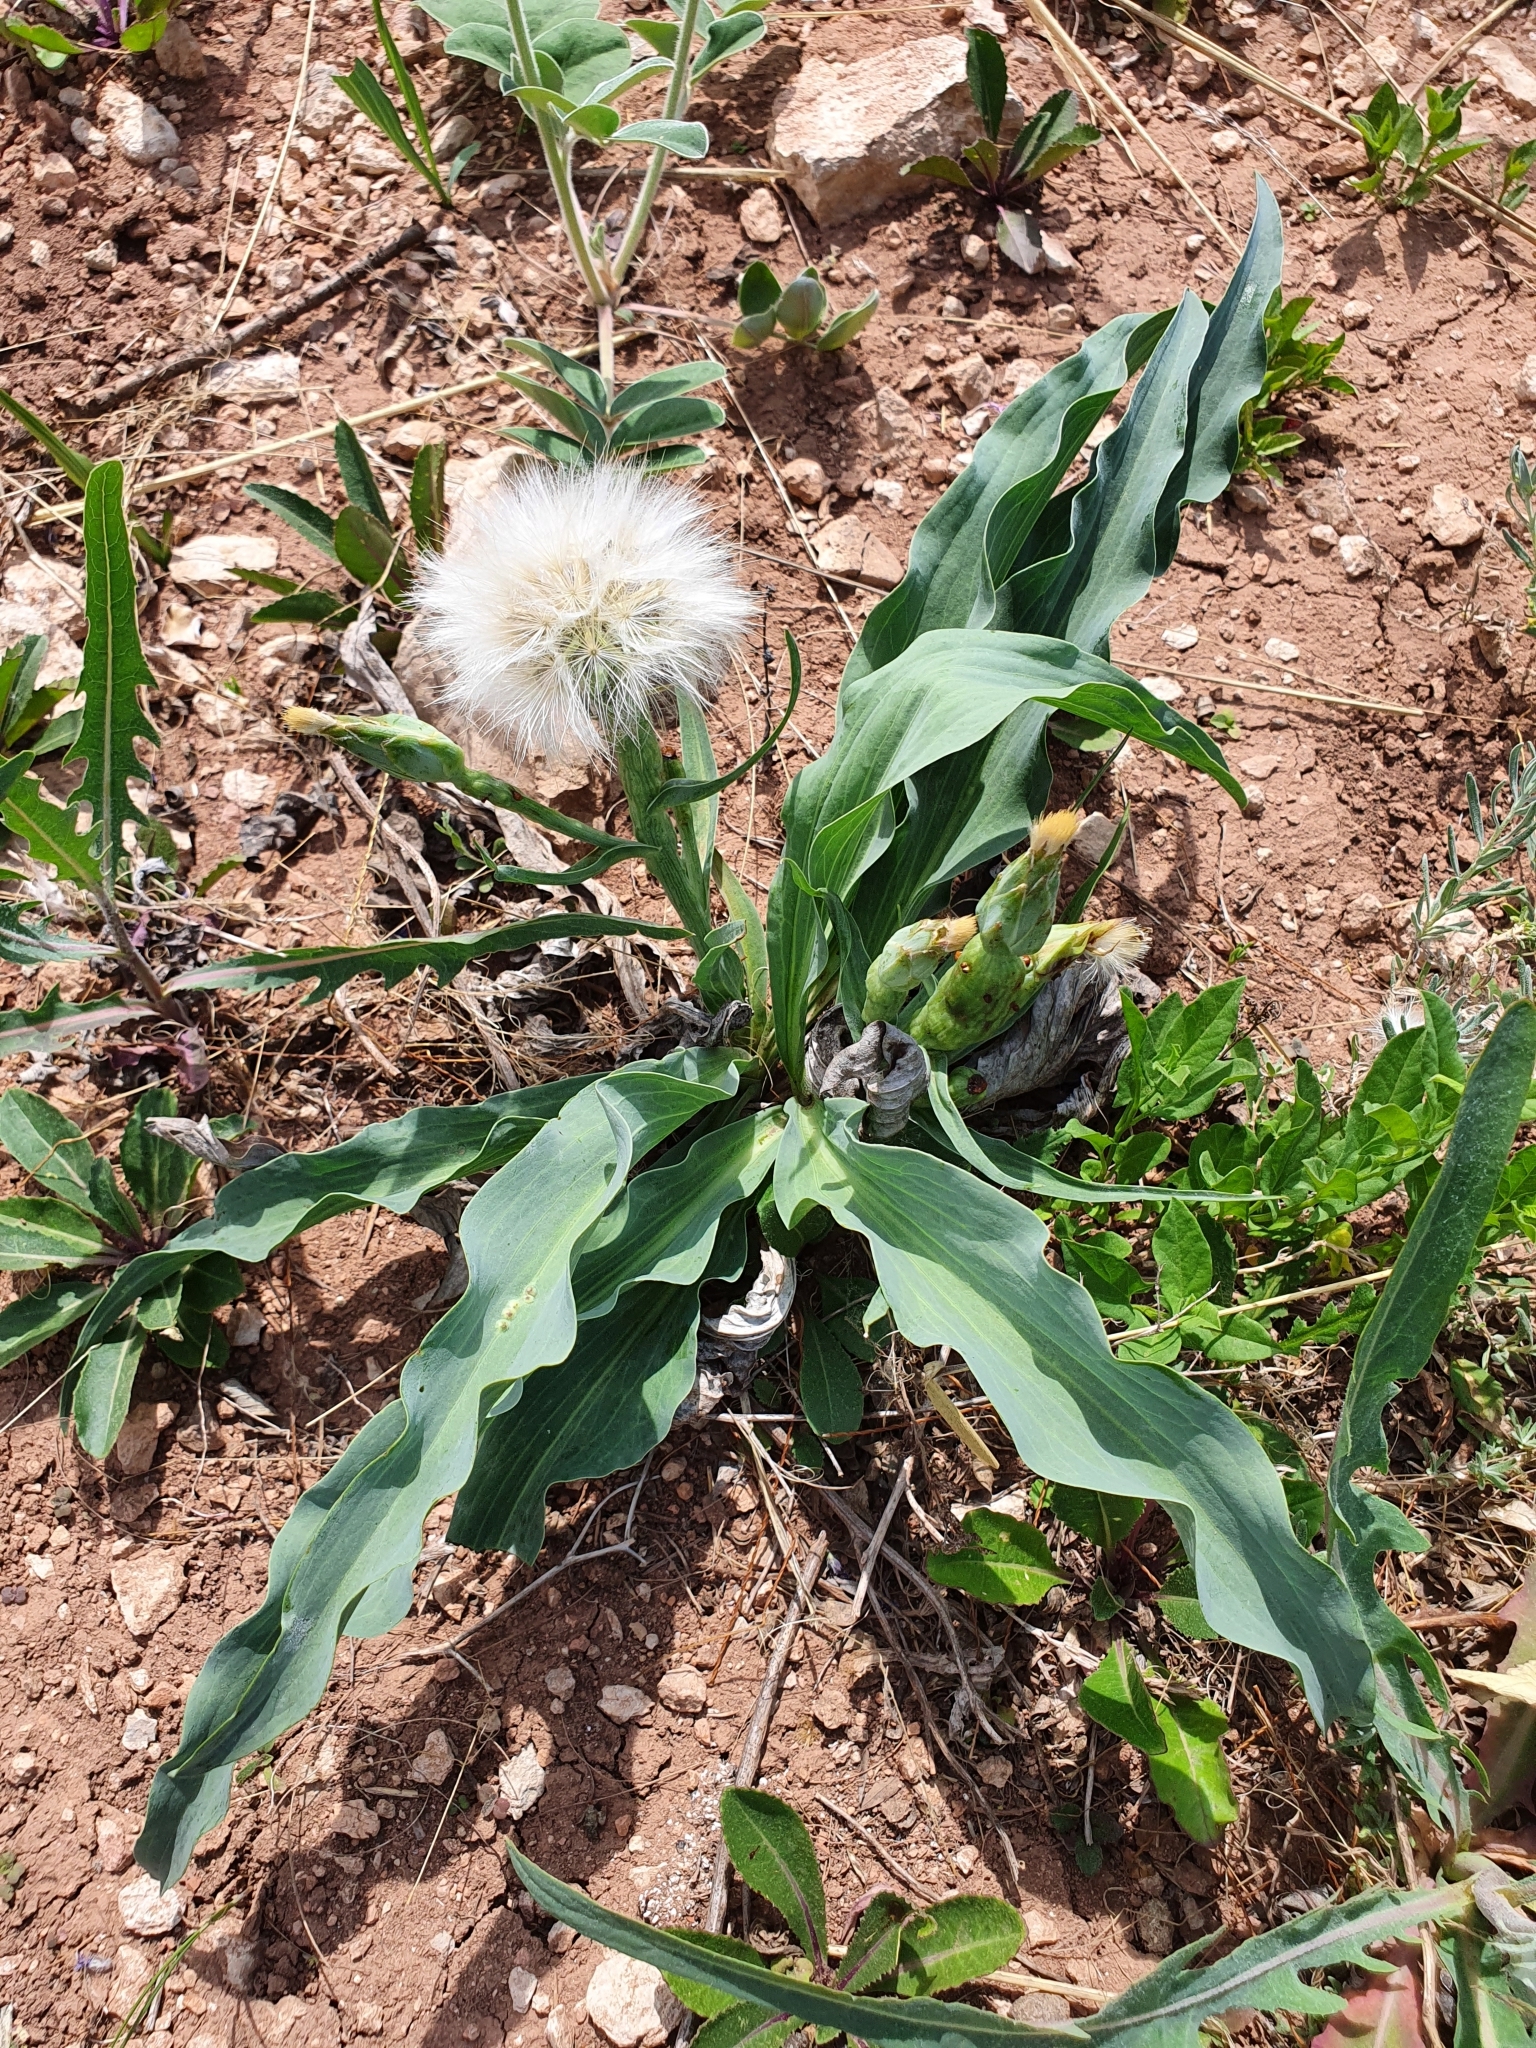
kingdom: Plantae
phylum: Tracheophyta
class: Magnoliopsida
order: Asterales
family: Asteraceae
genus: Scorzonera
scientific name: Scorzonera pratorum
